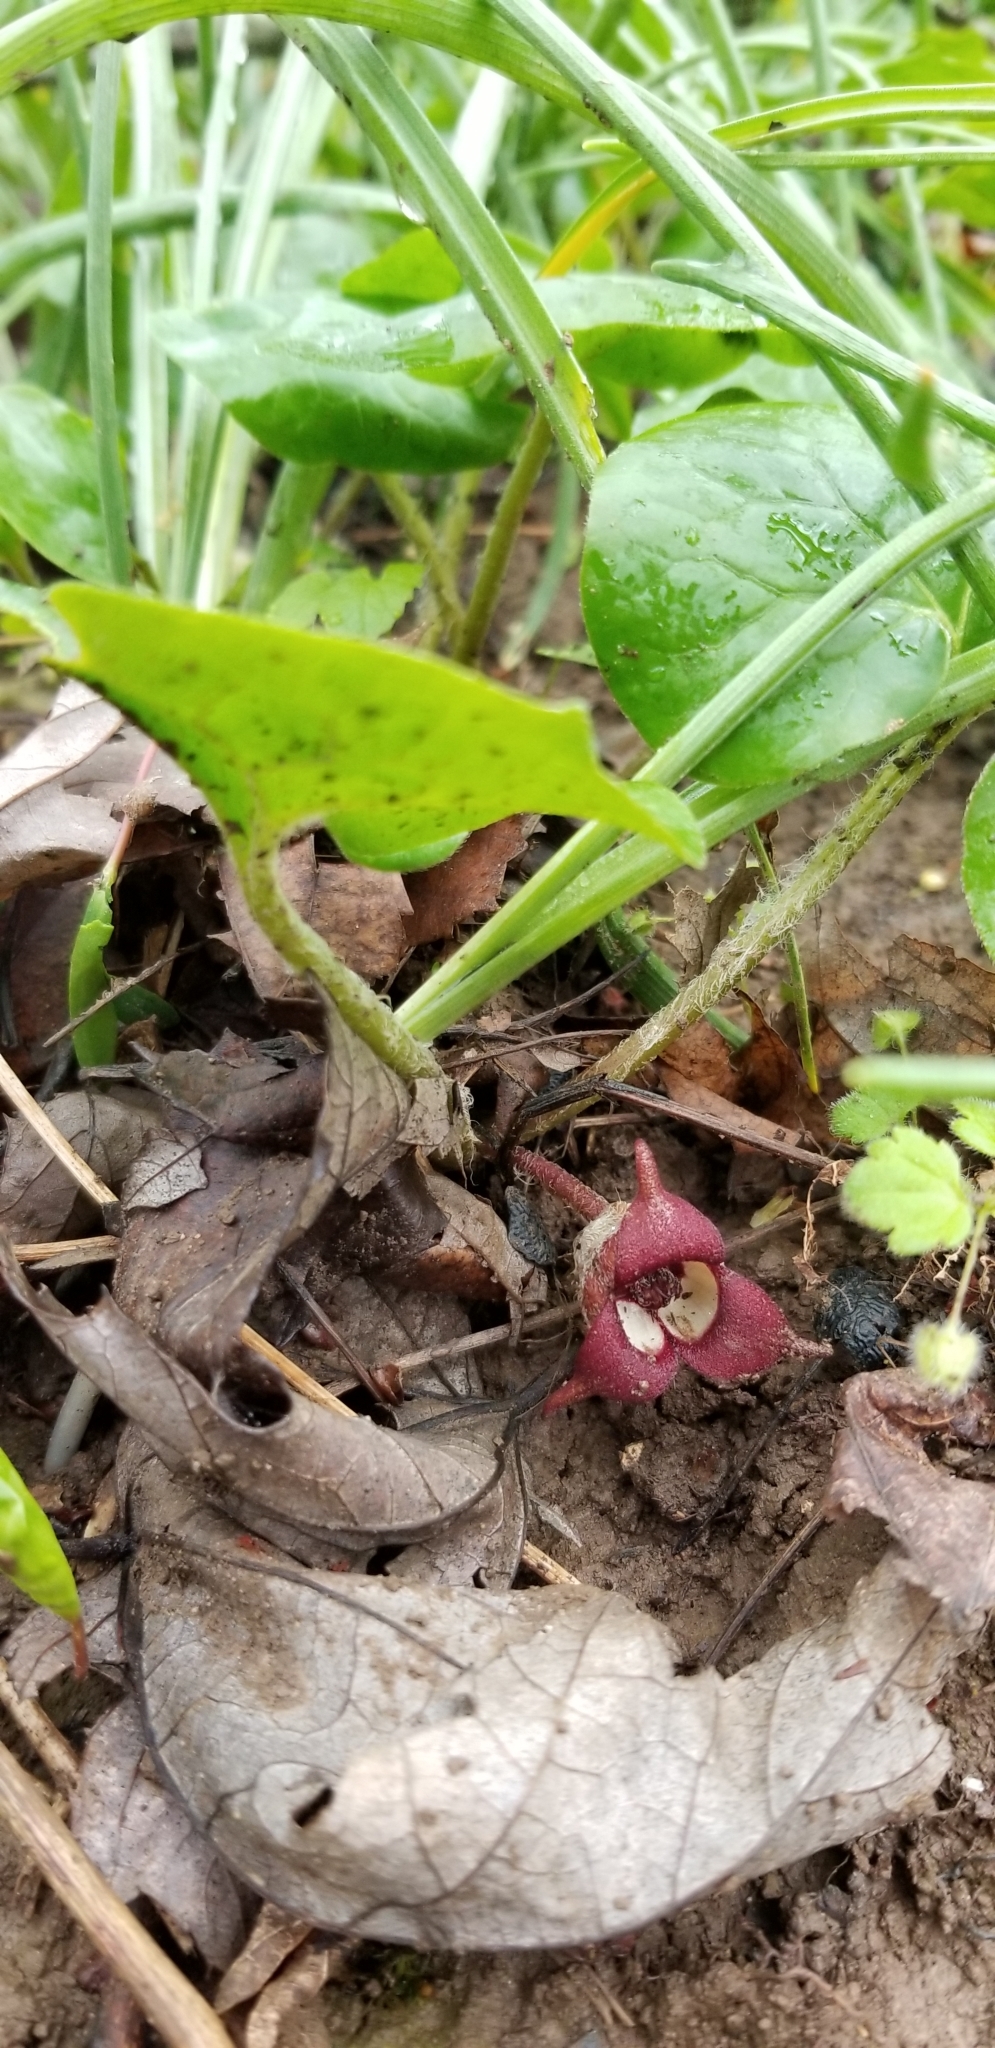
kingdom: Plantae
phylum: Tracheophyta
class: Magnoliopsida
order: Piperales
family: Aristolochiaceae
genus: Asarum
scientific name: Asarum canadense
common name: Wild ginger
